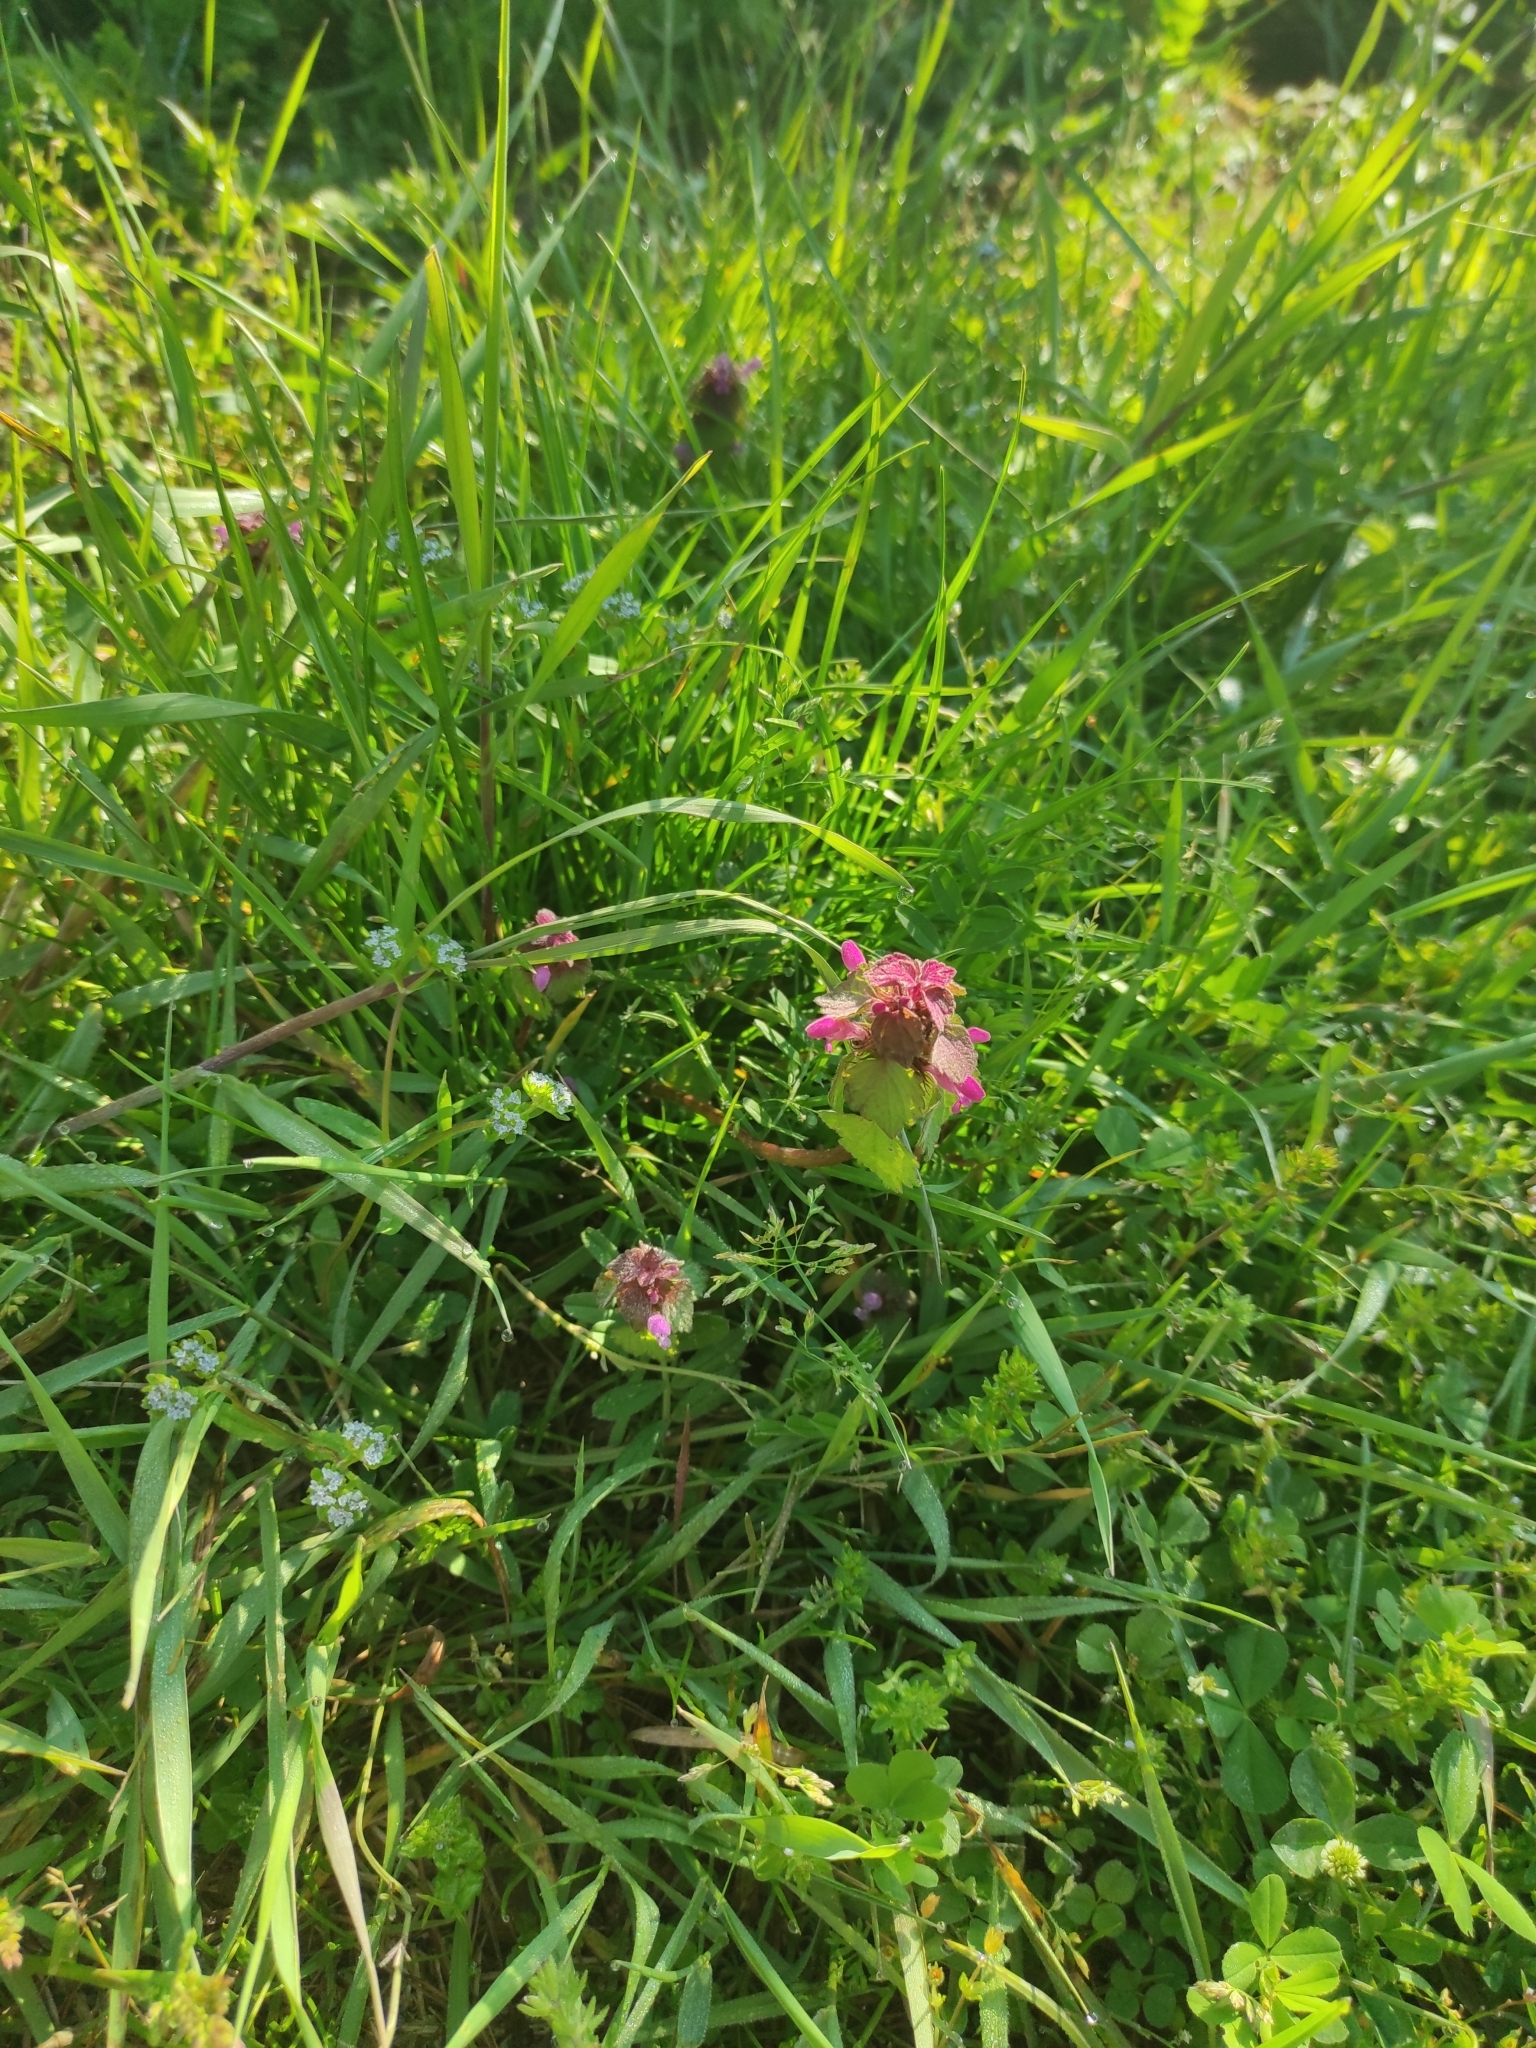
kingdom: Plantae
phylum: Tracheophyta
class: Magnoliopsida
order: Lamiales
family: Lamiaceae
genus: Lamium
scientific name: Lamium purpureum
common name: Red dead-nettle
